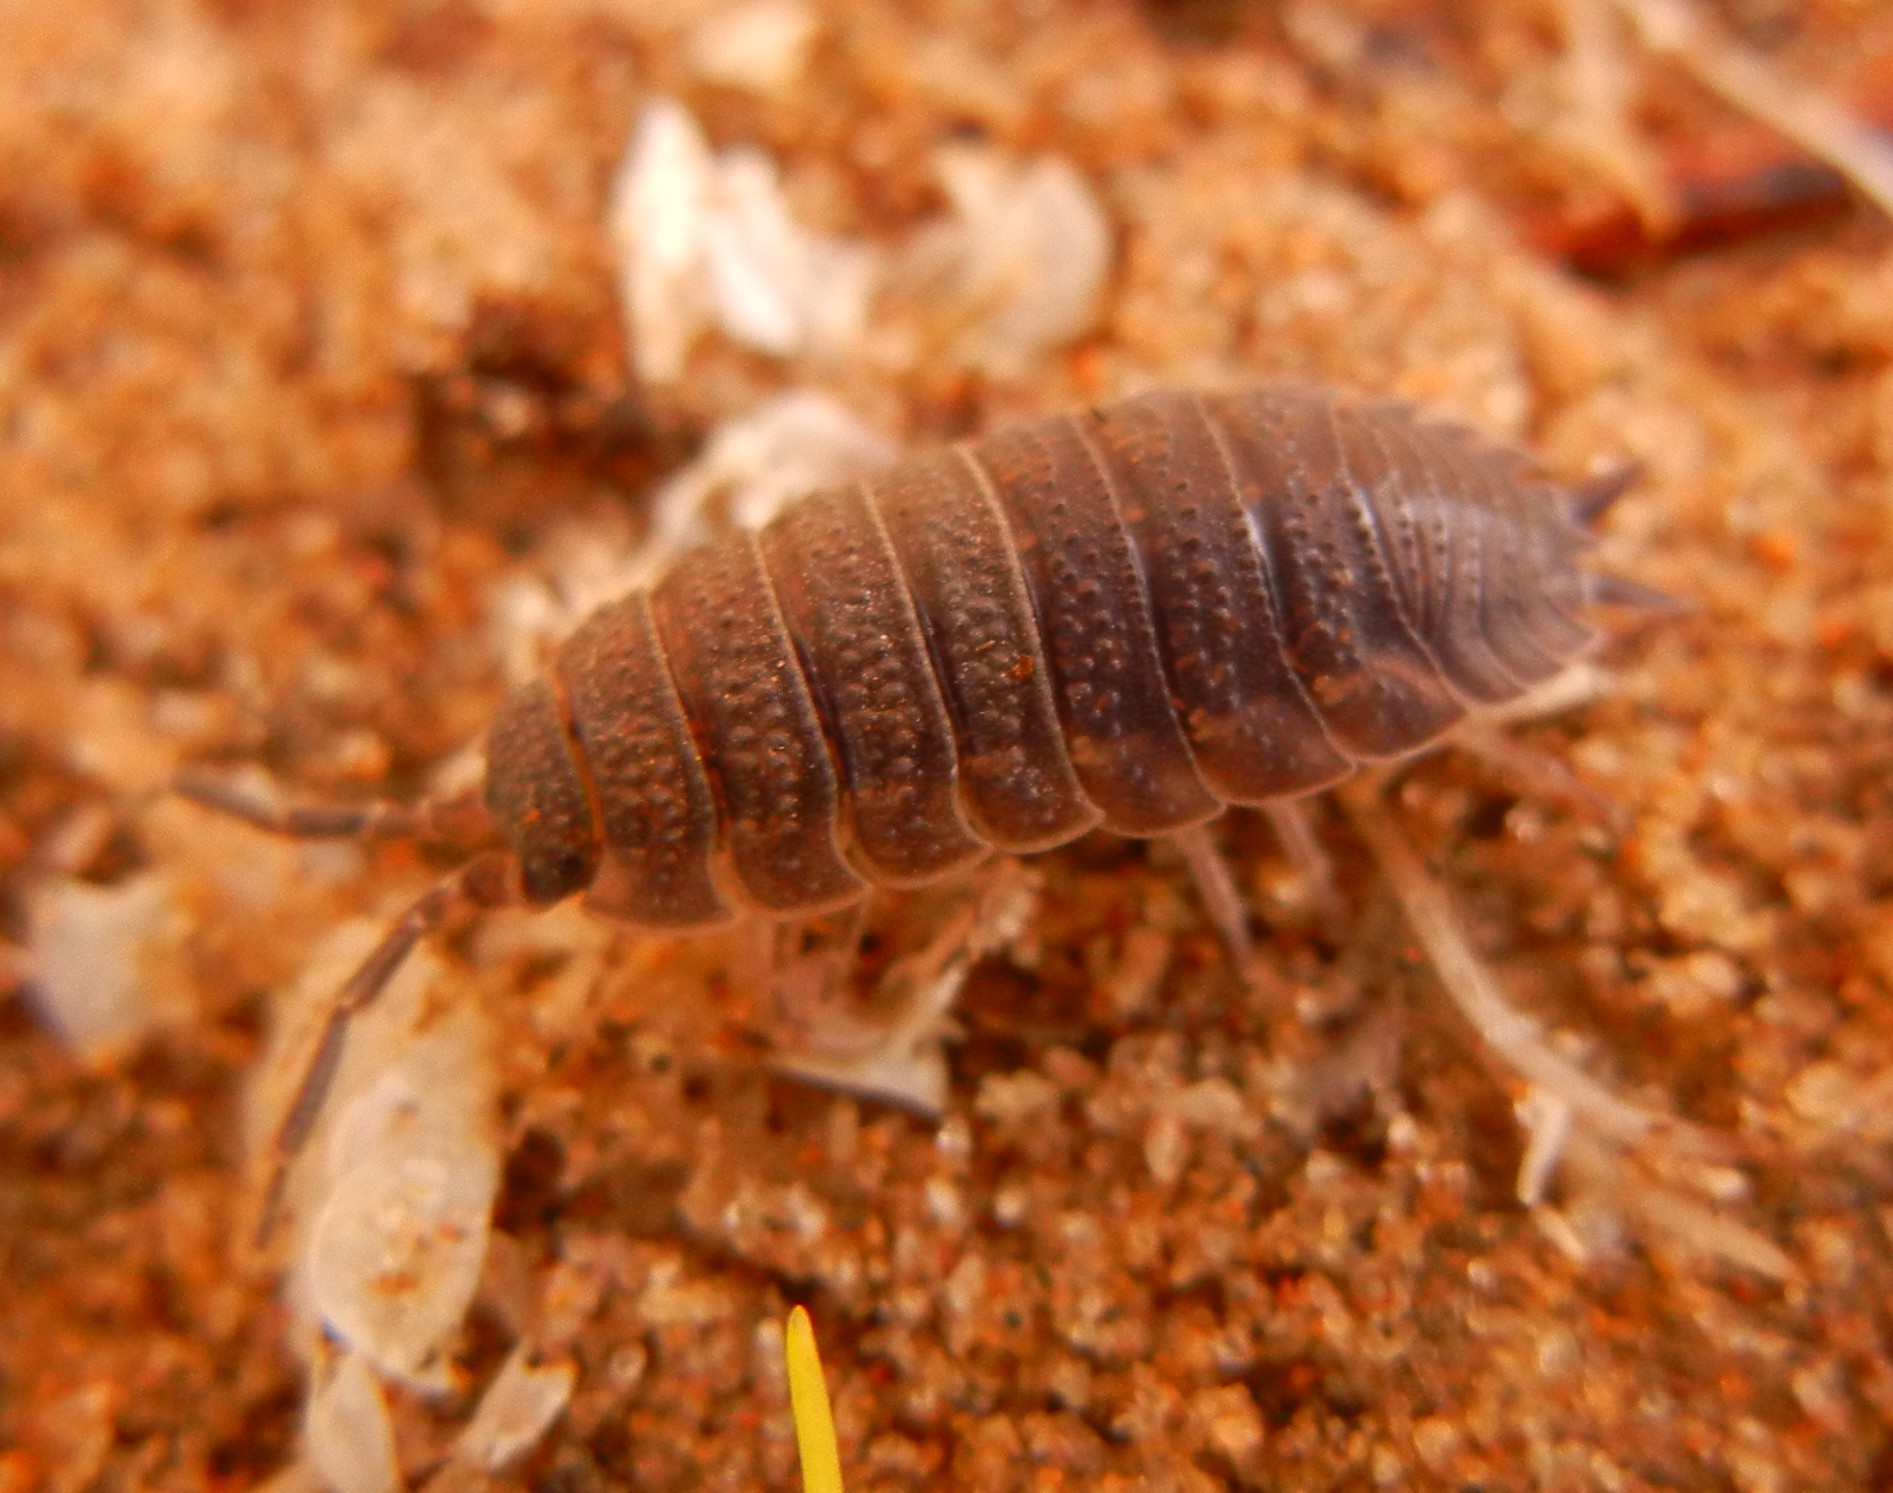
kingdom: Animalia
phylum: Arthropoda
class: Malacostraca
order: Isopoda
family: Porcellionidae
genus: Porcellio
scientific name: Porcellio scaber
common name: Common rough woodlouse
